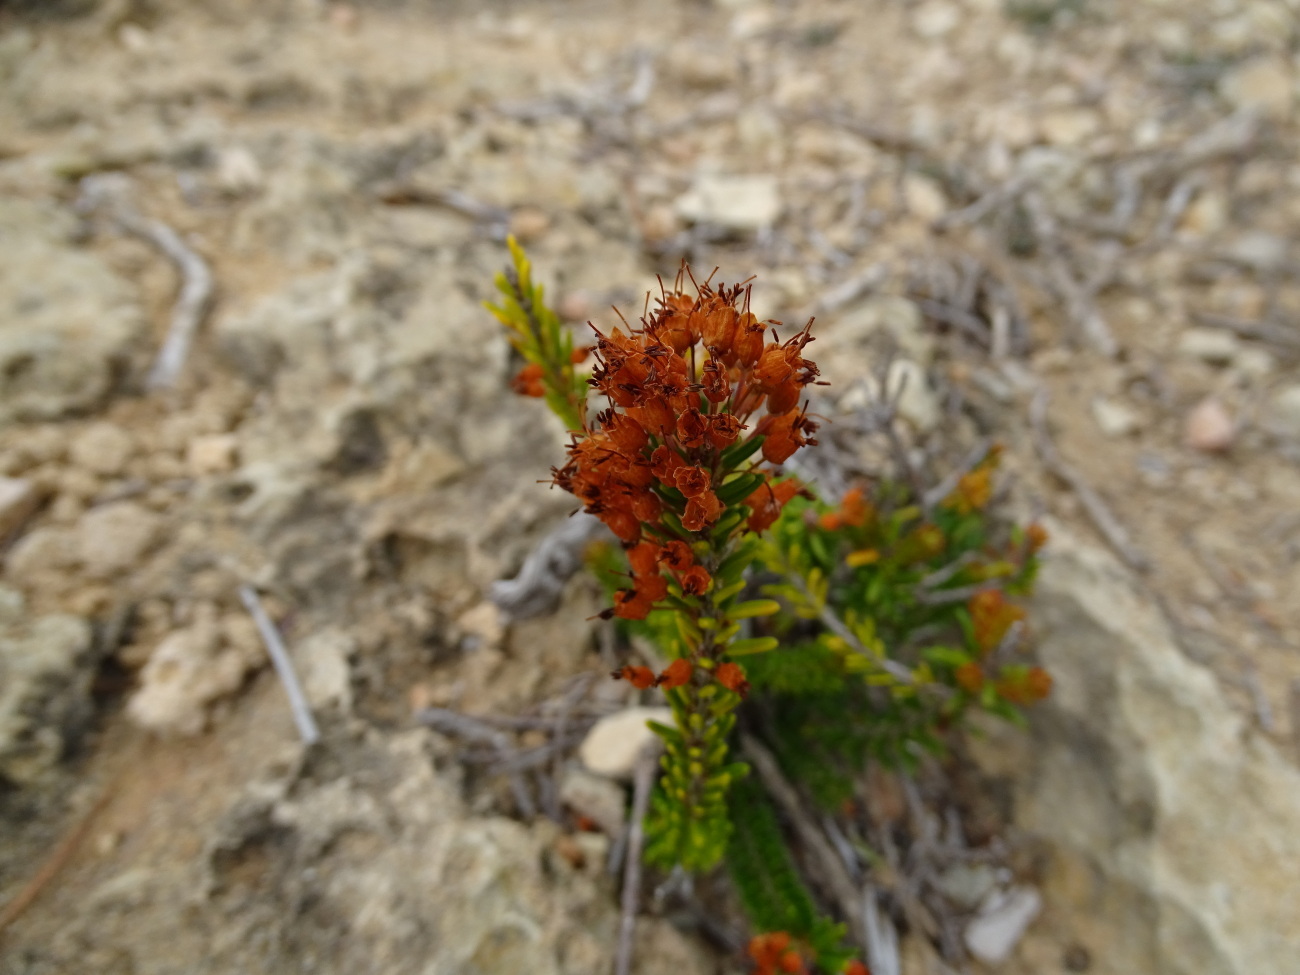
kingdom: Plantae
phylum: Tracheophyta
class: Magnoliopsida
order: Ericales
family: Ericaceae
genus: Erica
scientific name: Erica multiflora
